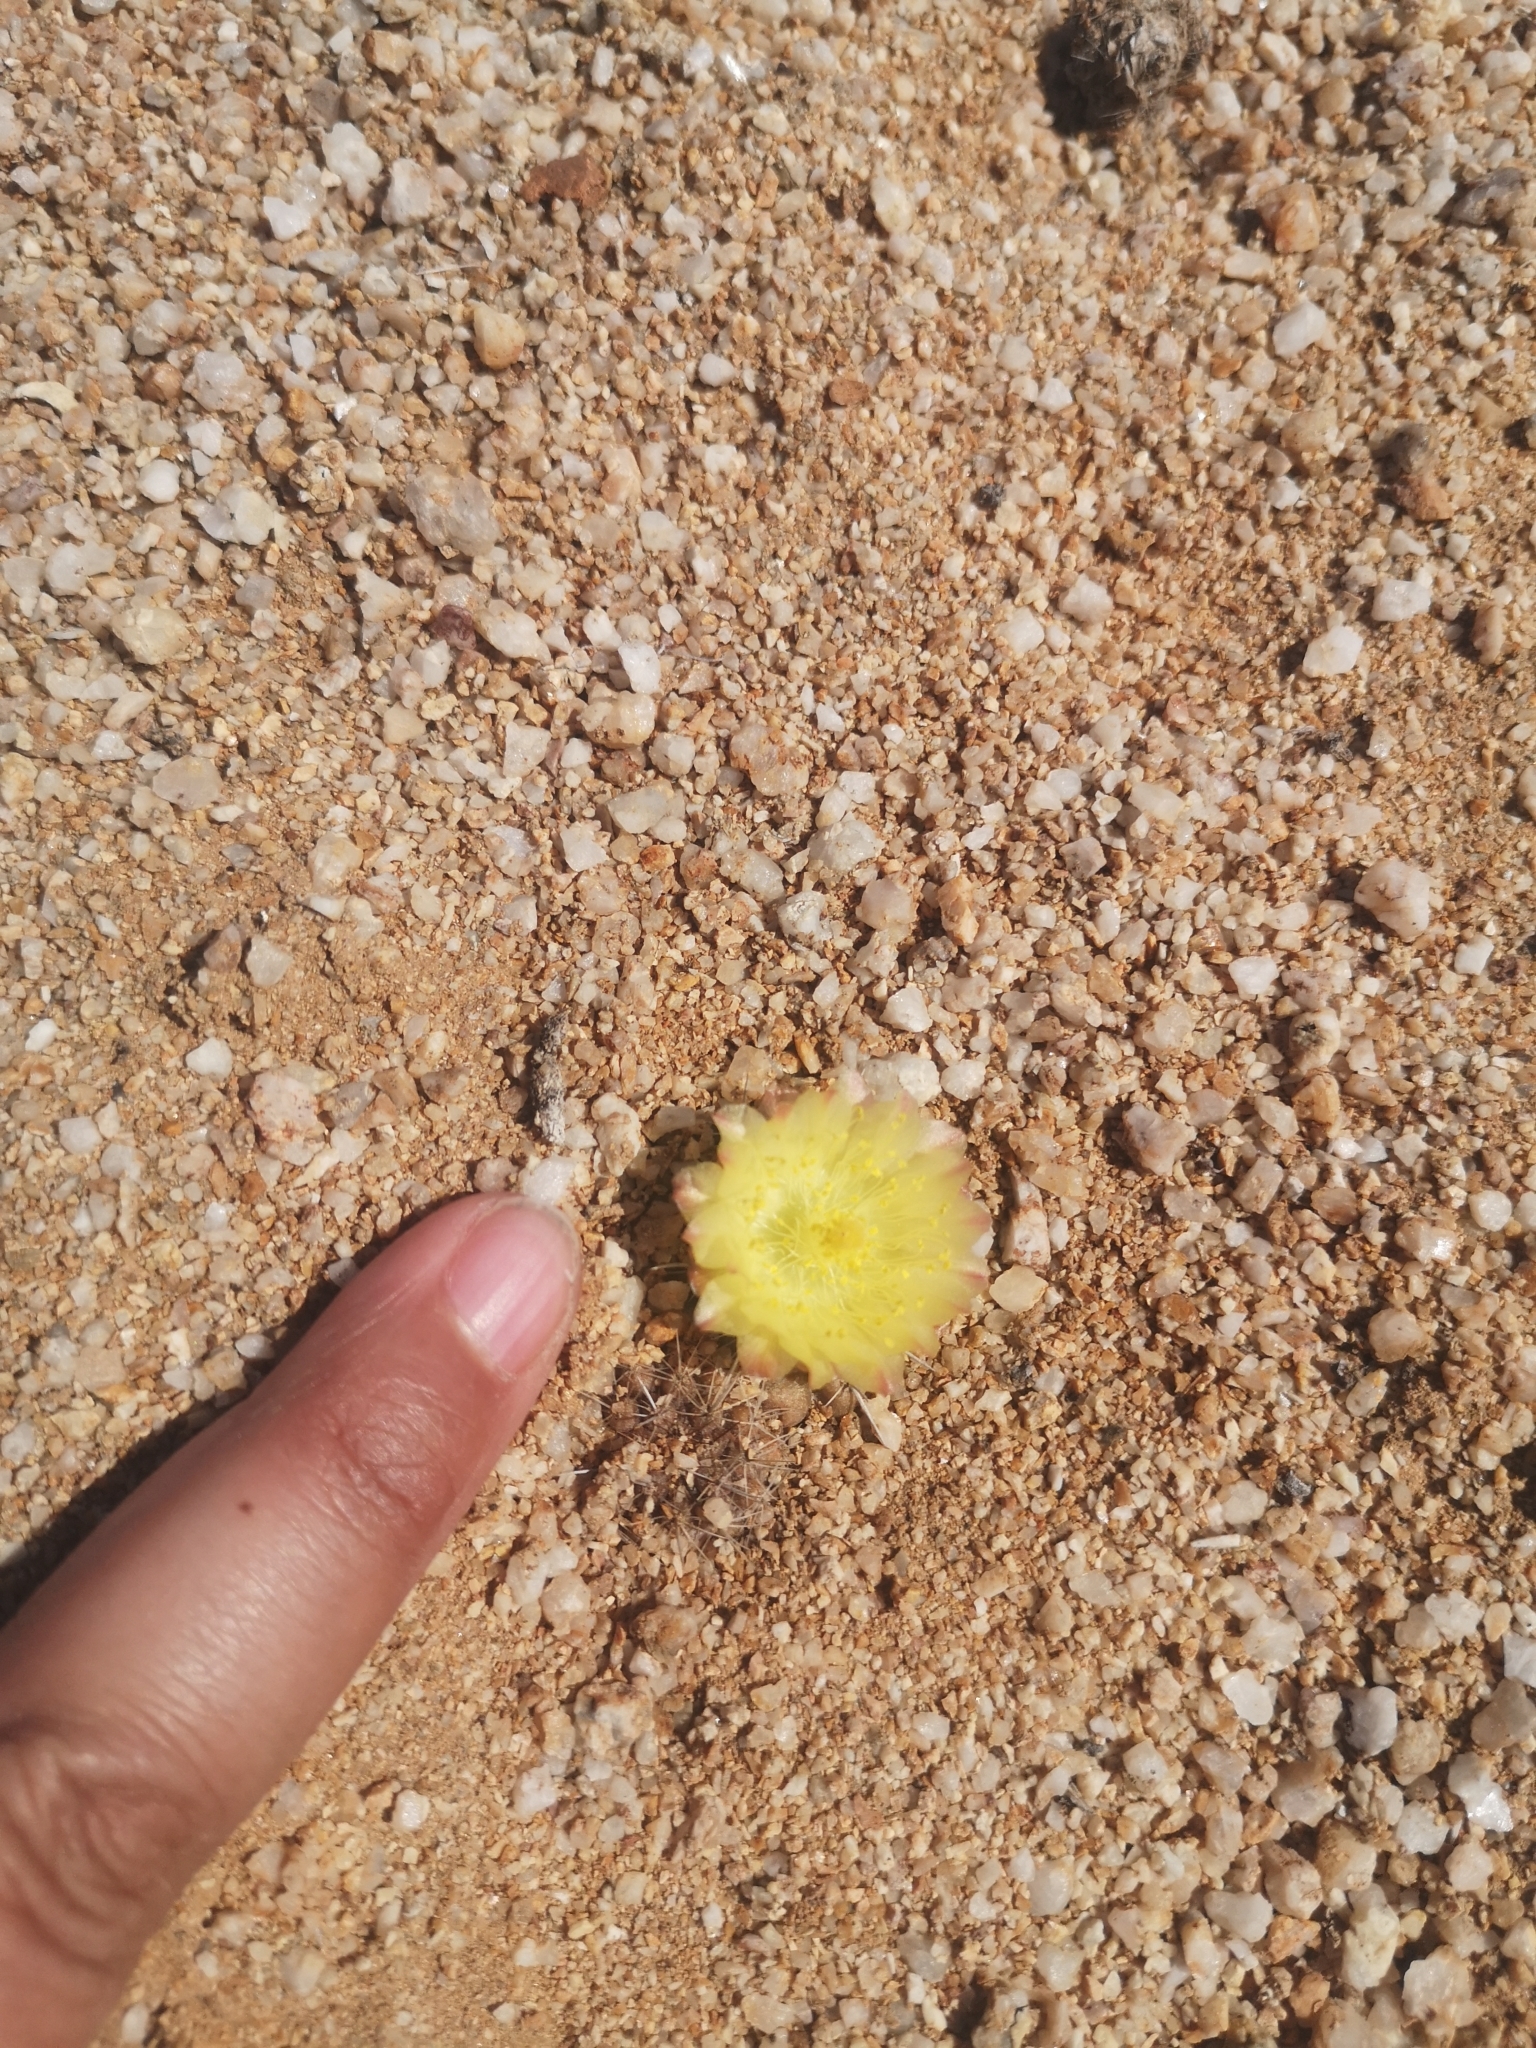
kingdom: Plantae
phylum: Tracheophyta
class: Magnoliopsida
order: Caryophyllales
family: Cactaceae
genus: Copiapoa
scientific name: Copiapoa humilis
